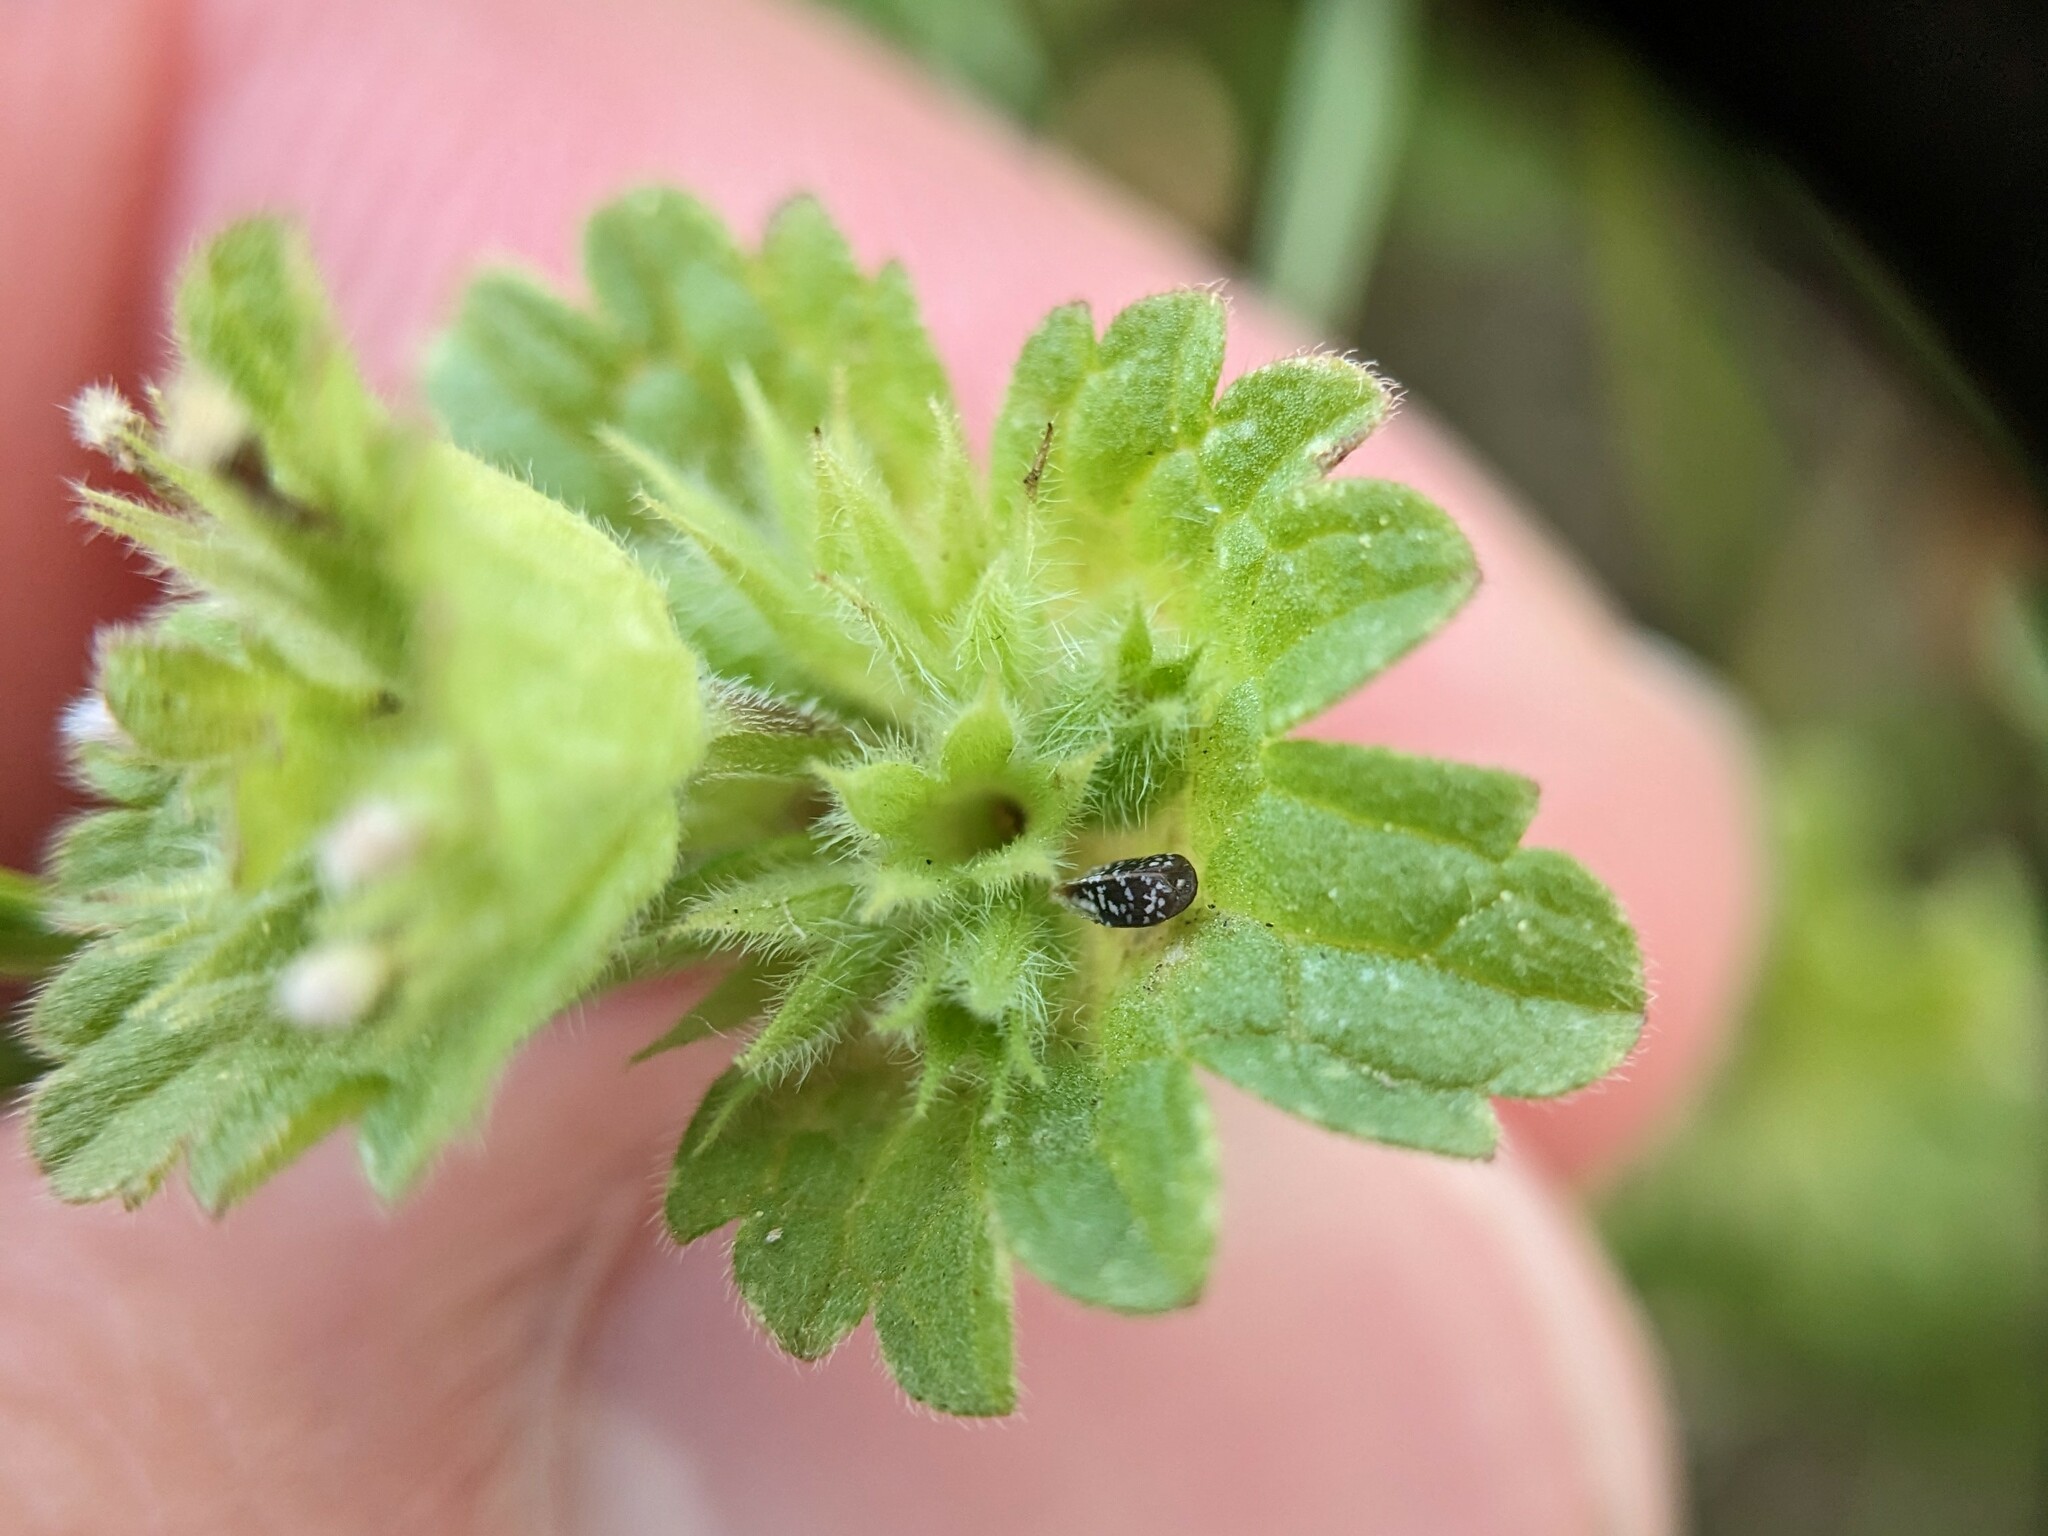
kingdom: Plantae
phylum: Tracheophyta
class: Magnoliopsida
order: Lamiales
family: Lamiaceae
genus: Lamium
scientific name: Lamium amplexicaule
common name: Henbit dead-nettle
